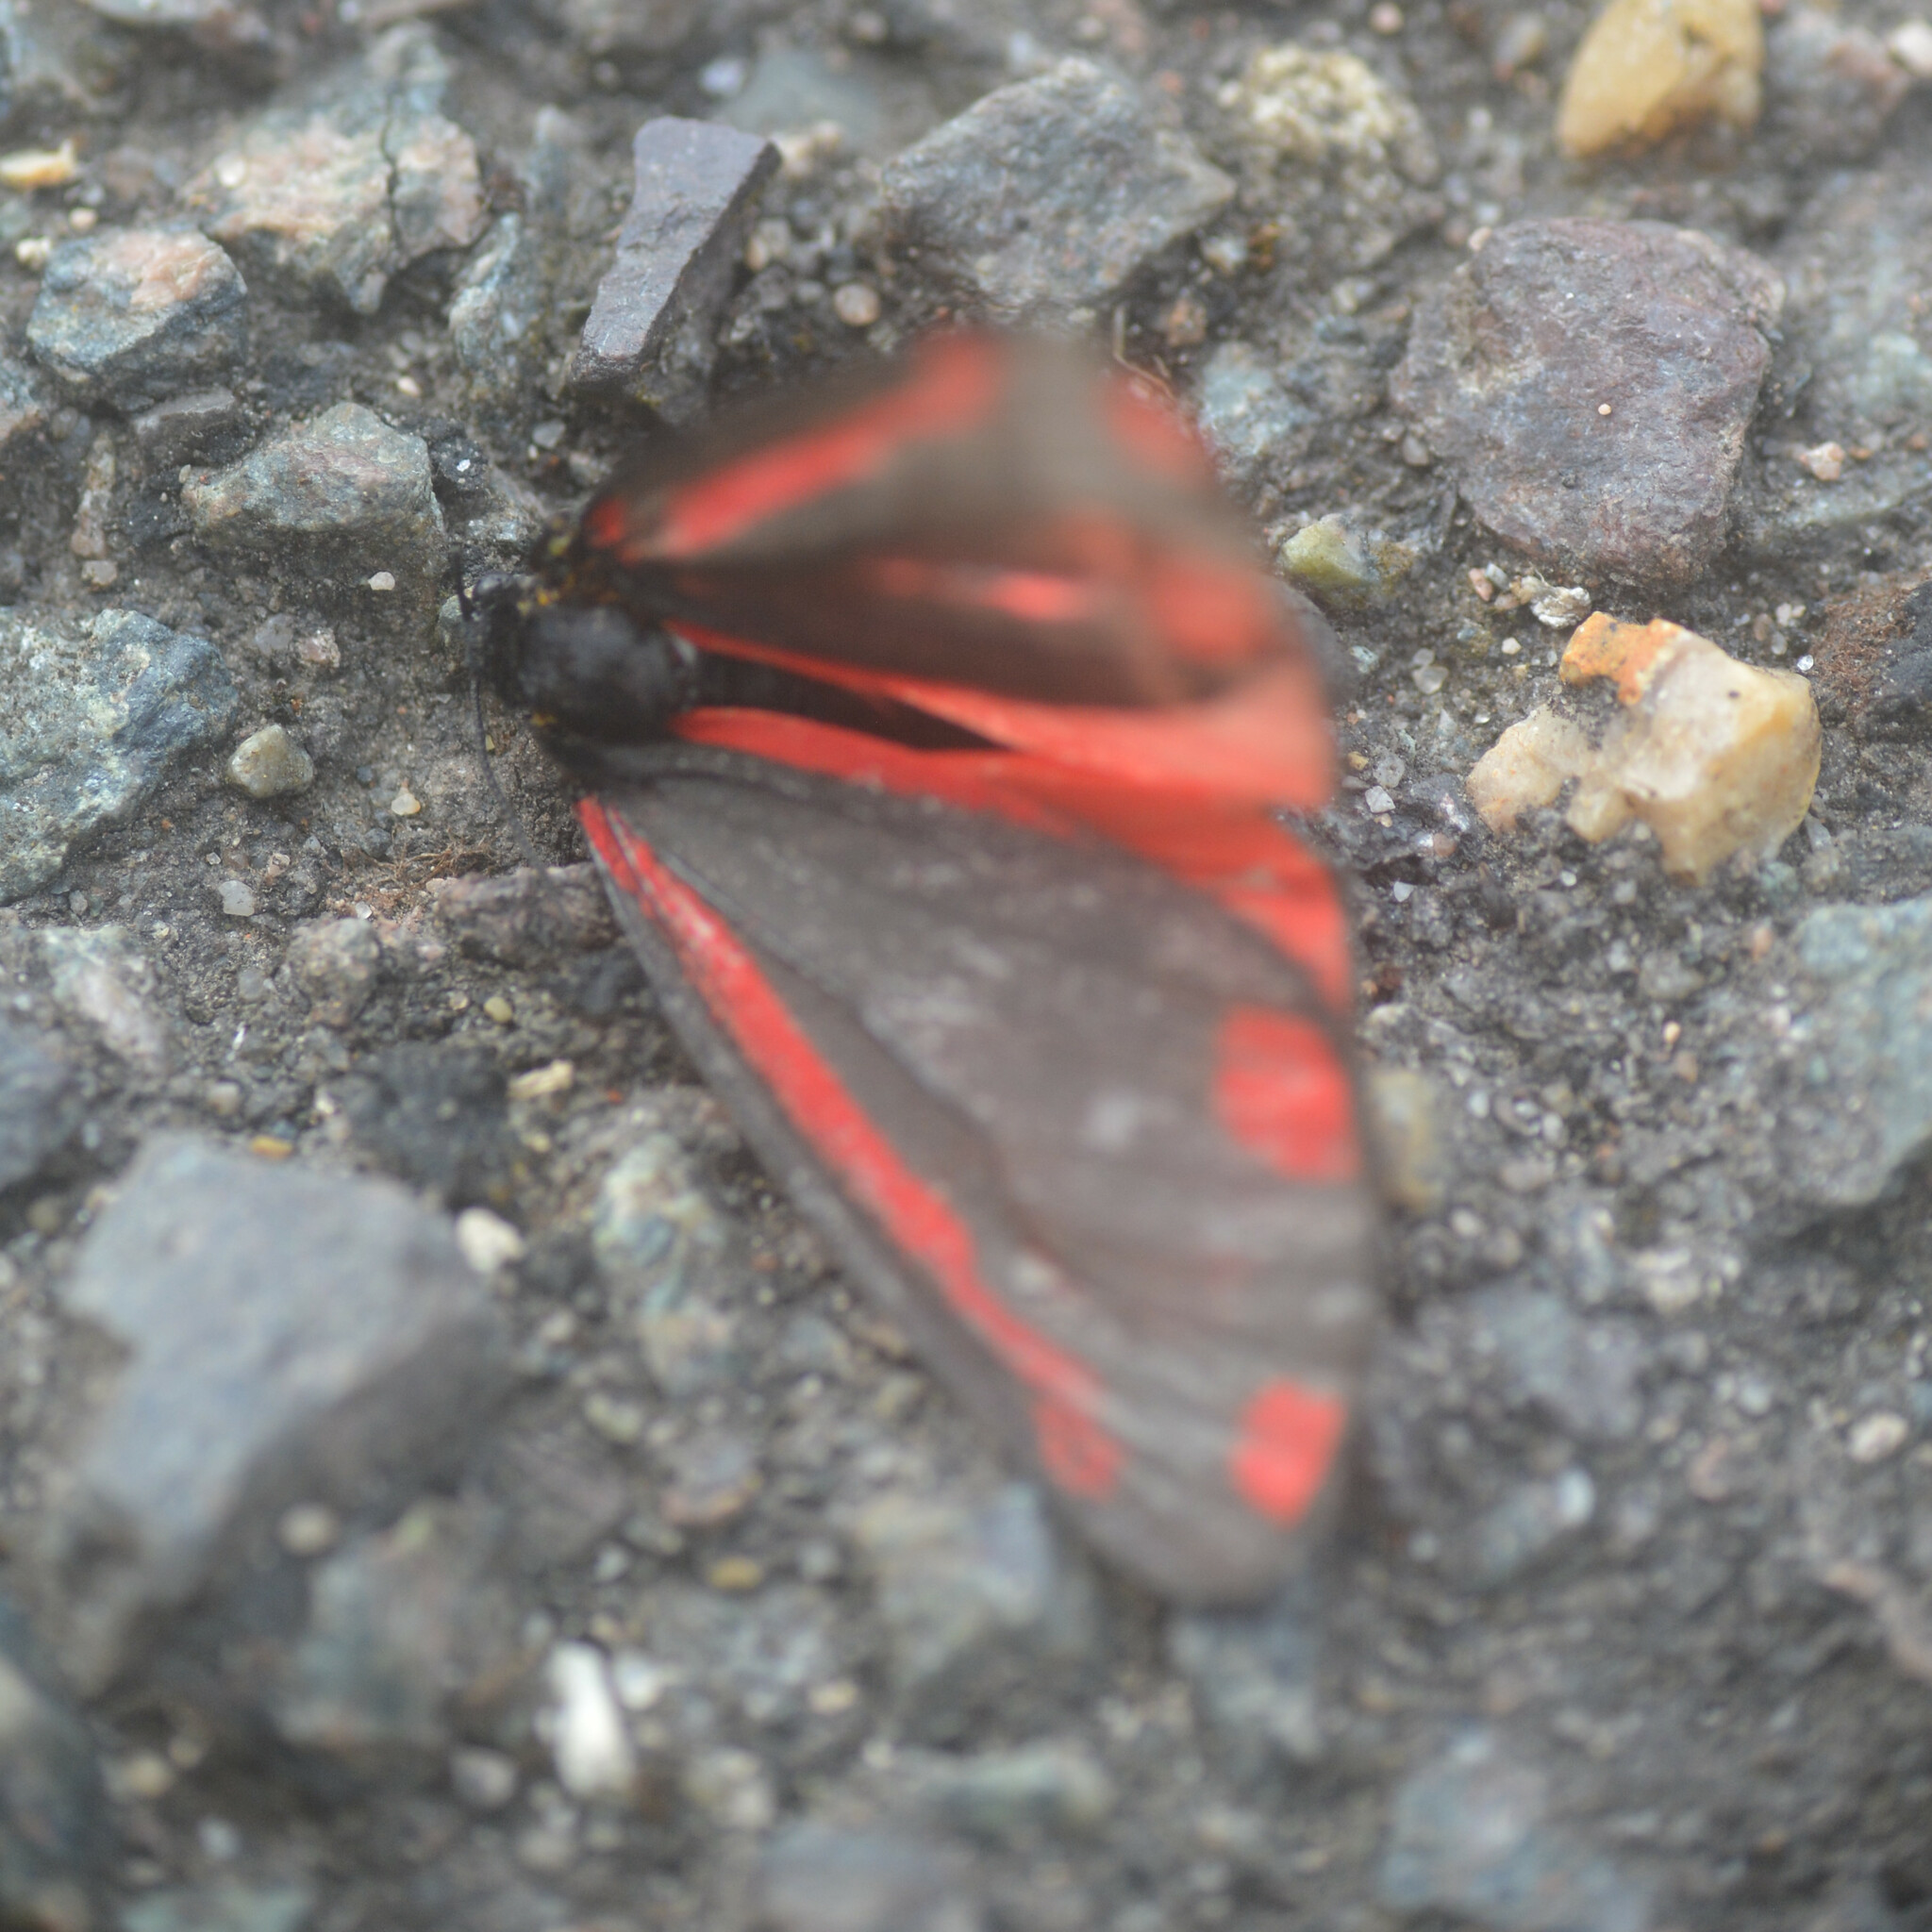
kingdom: Animalia
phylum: Arthropoda
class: Insecta
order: Lepidoptera
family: Erebidae
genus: Tyria
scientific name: Tyria jacobaeae
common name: Cinnabar
